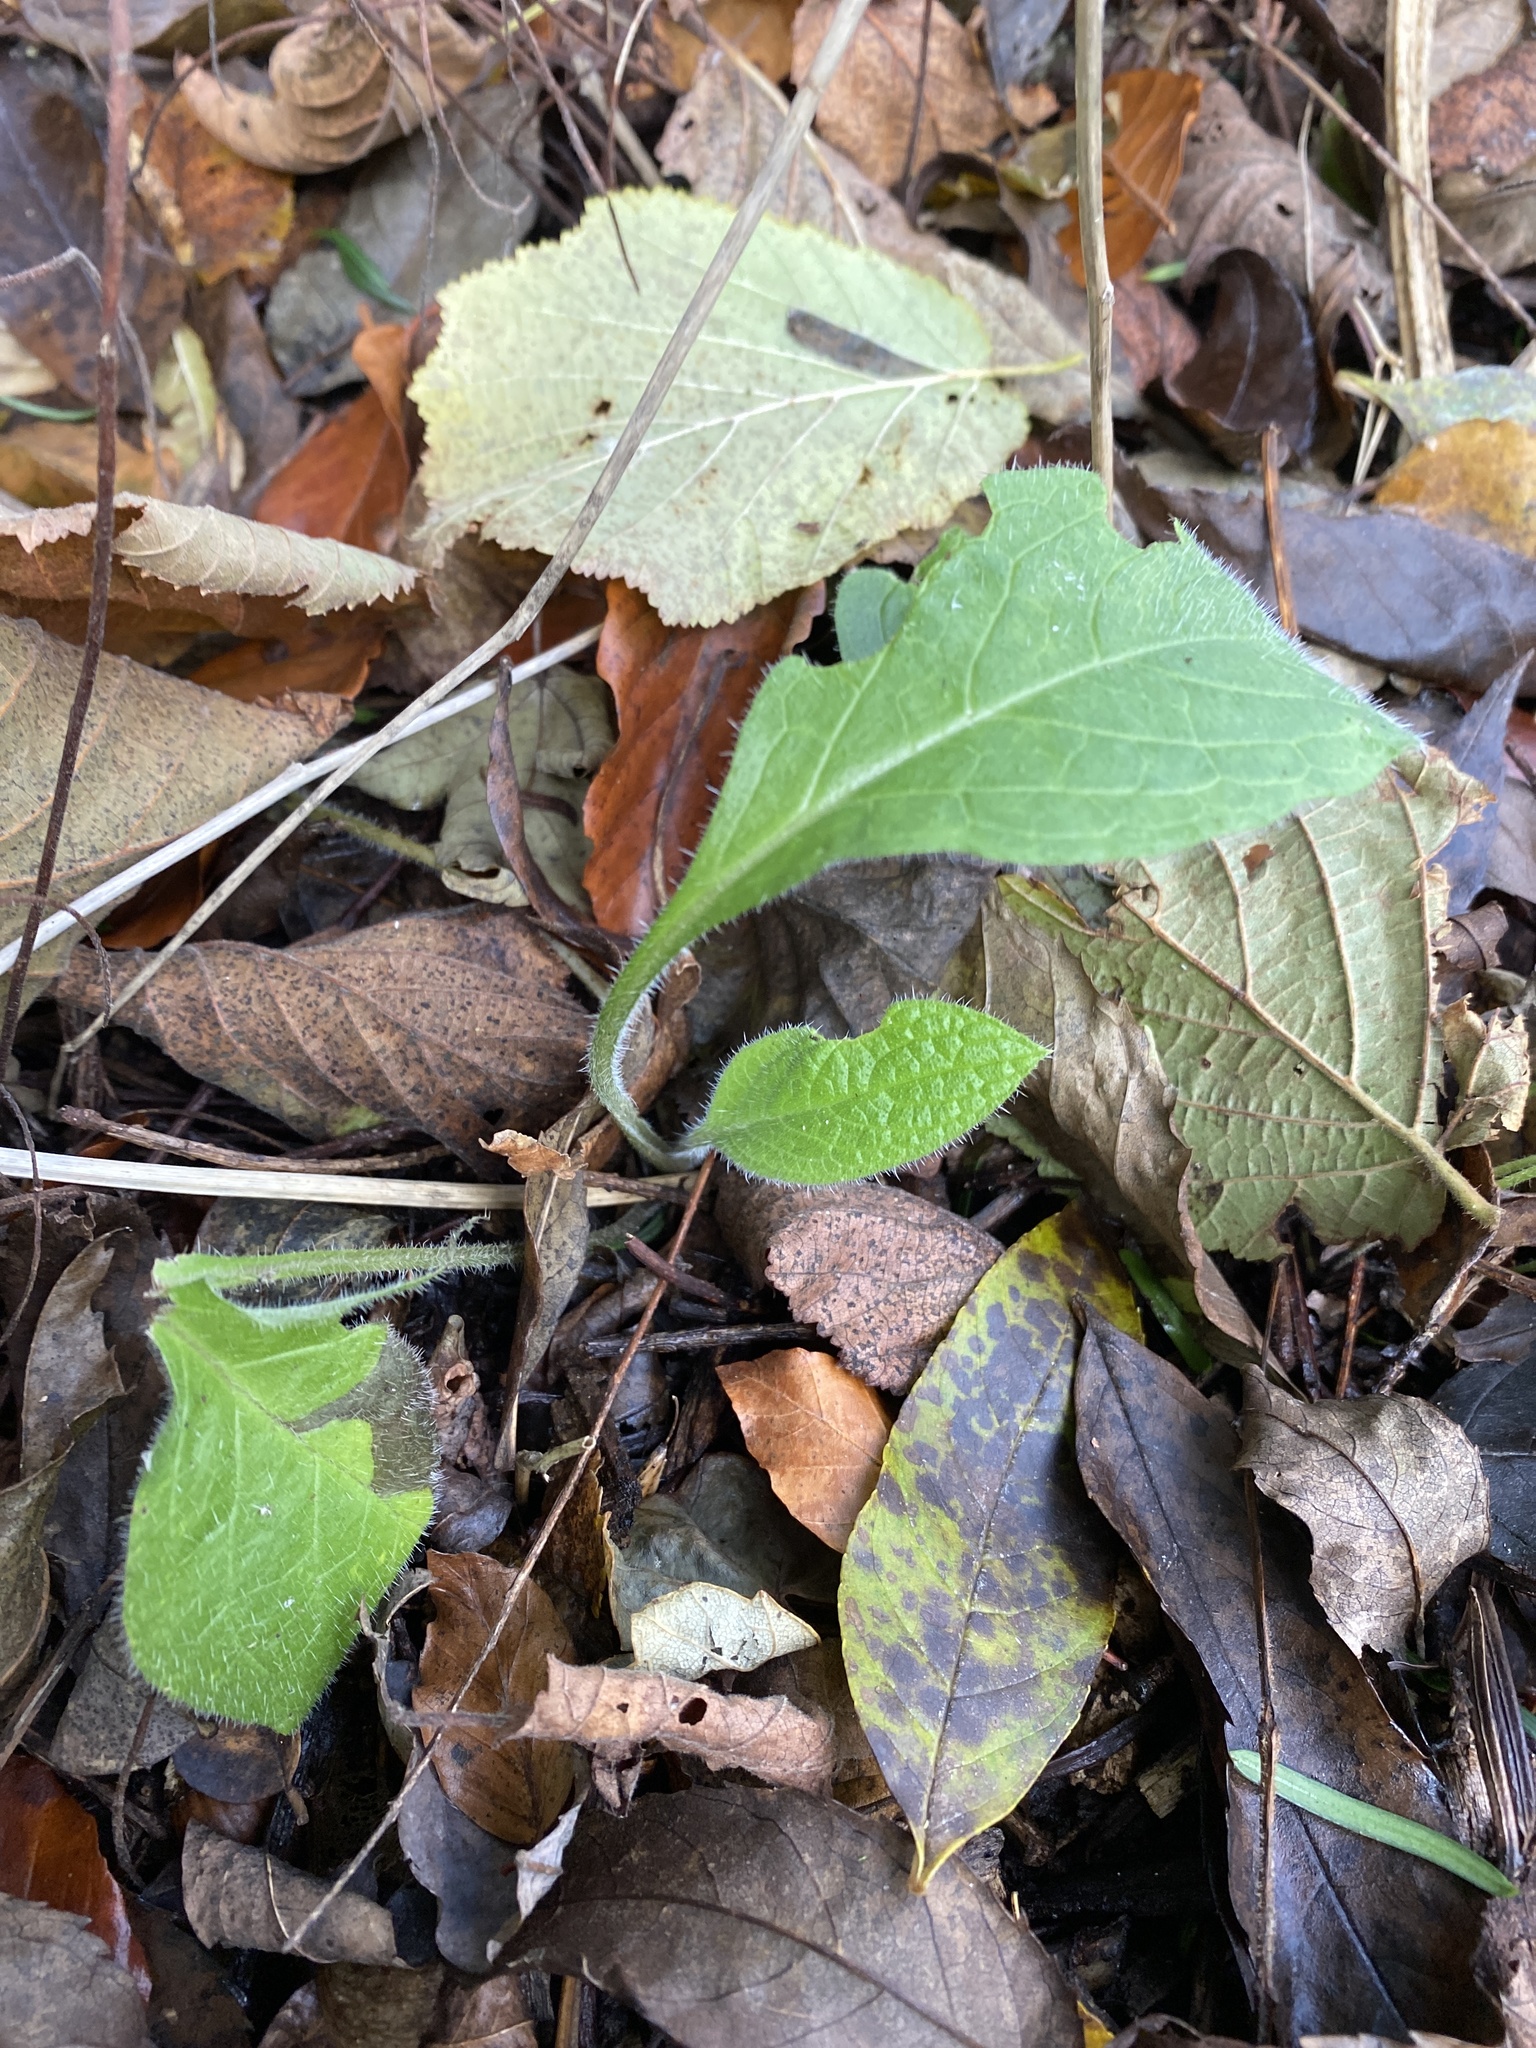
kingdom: Plantae
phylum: Tracheophyta
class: Magnoliopsida
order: Boraginales
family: Boraginaceae
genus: Pentaglottis
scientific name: Pentaglottis sempervirens
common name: Green alkanet
